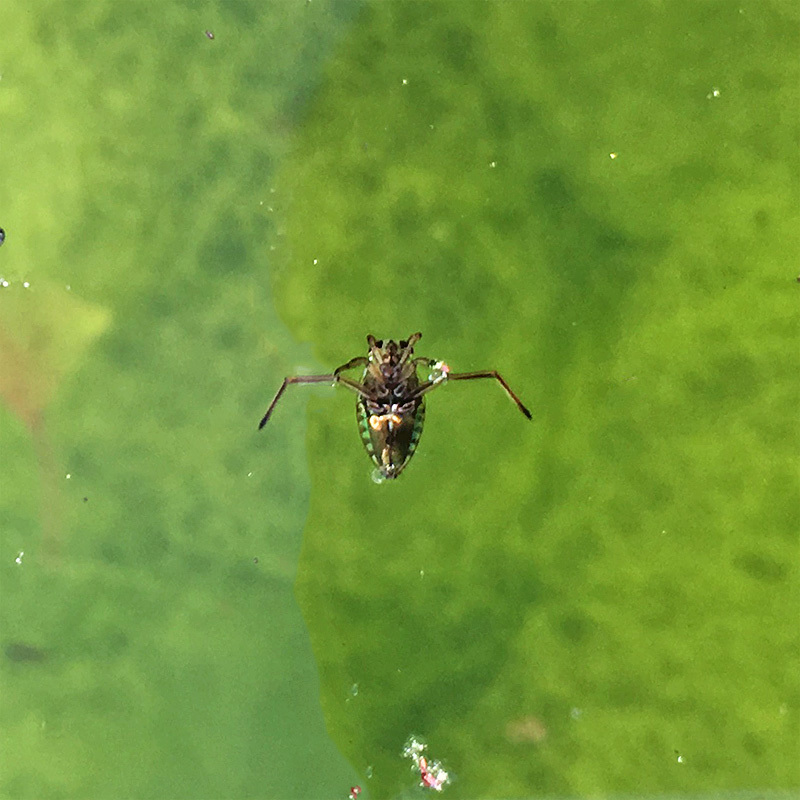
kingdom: Animalia
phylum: Arthropoda
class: Insecta
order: Hemiptera
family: Notonectidae
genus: Notonecta
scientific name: Notonecta
